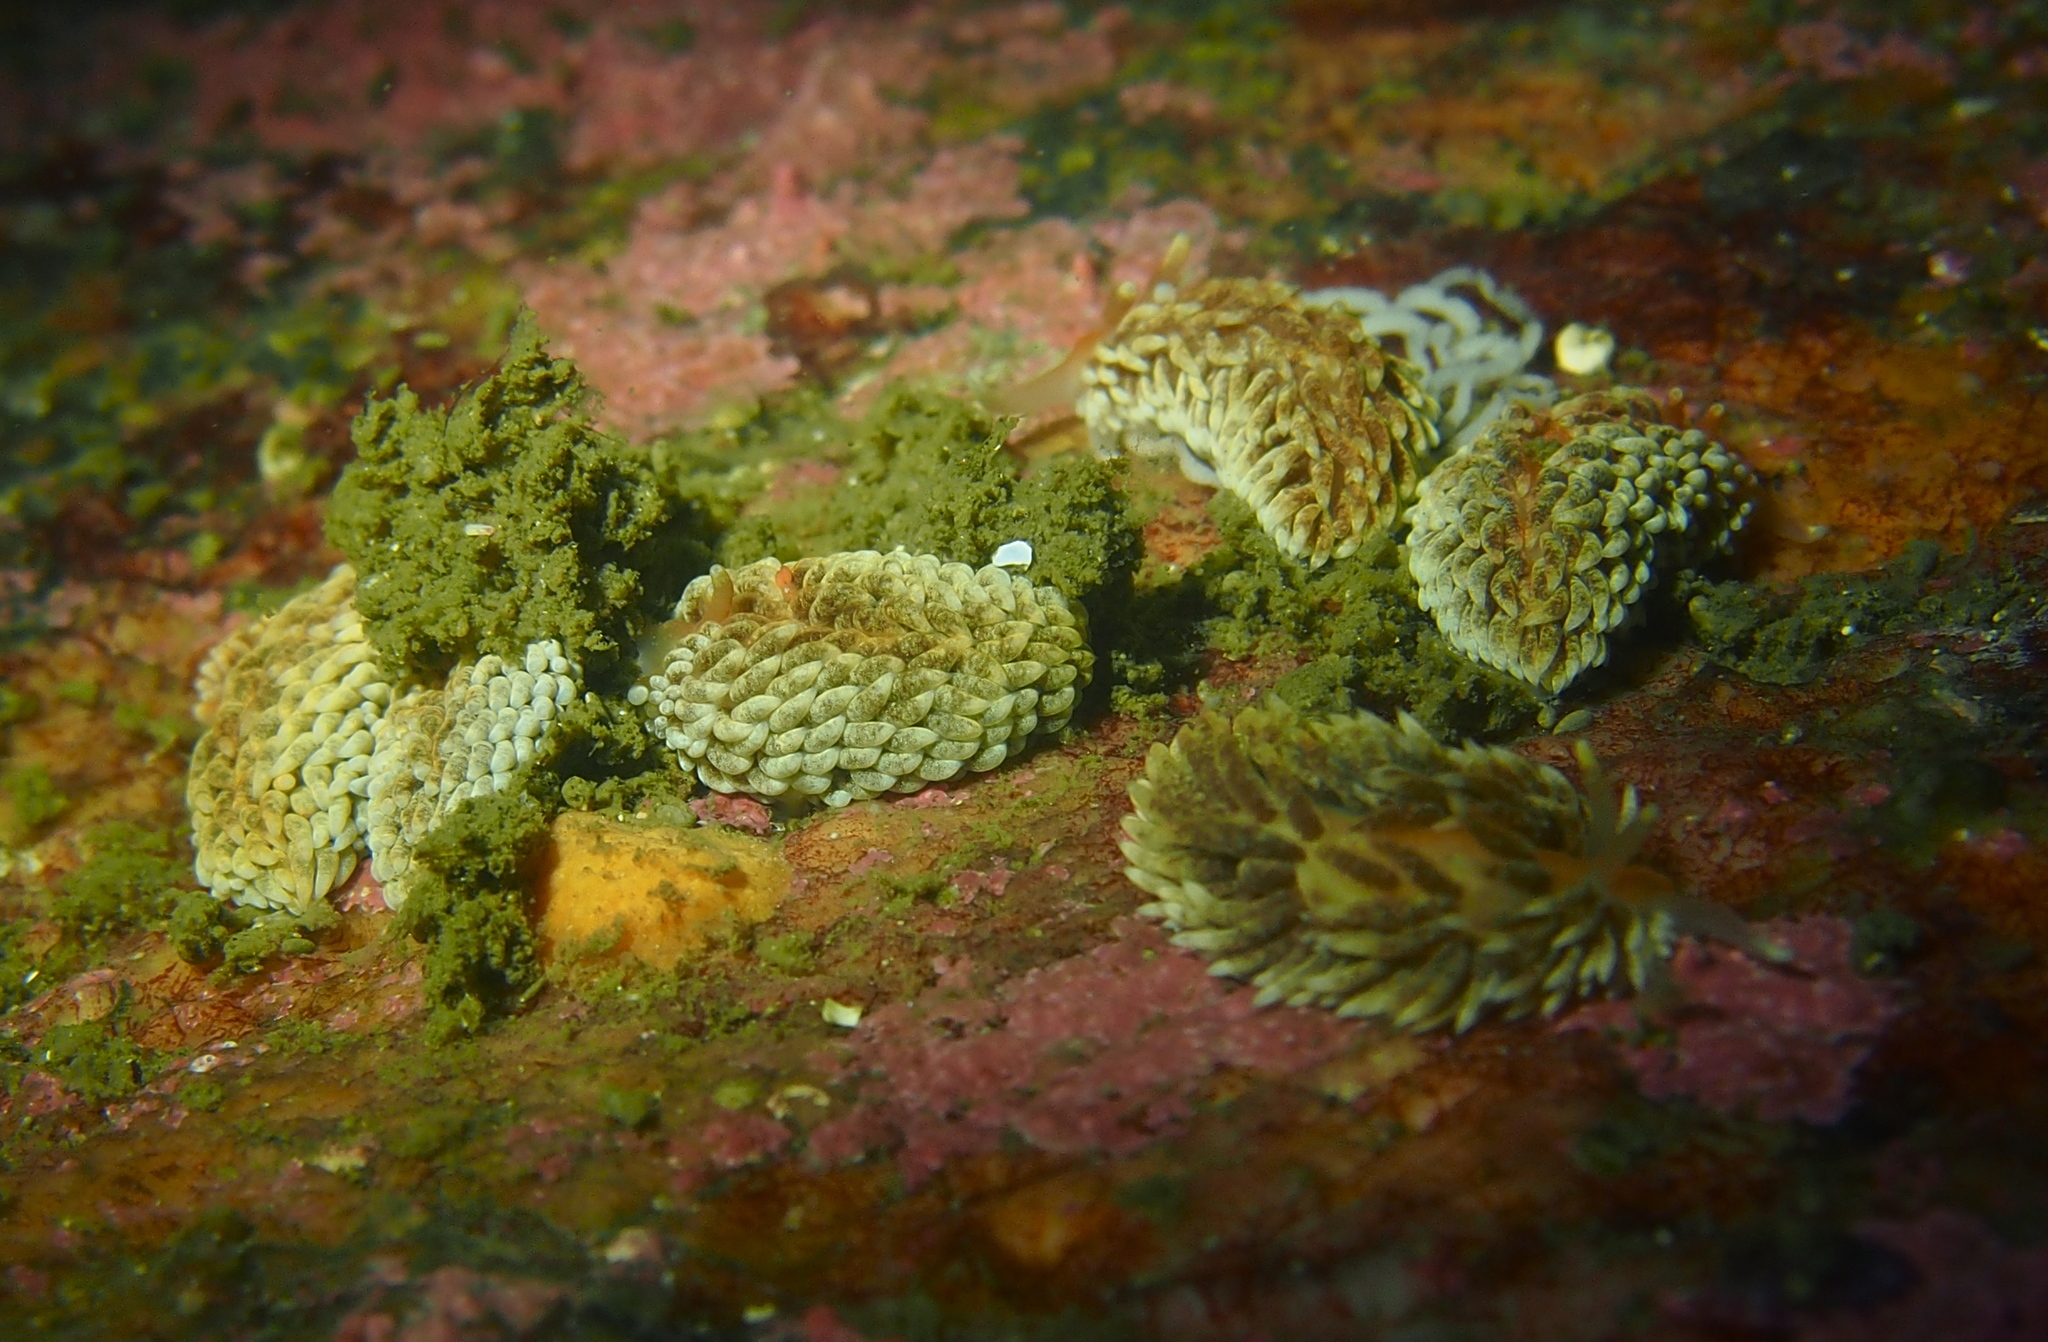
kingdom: Animalia
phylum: Mollusca
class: Gastropoda
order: Nudibranchia
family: Aeolidiidae
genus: Aeolidiella
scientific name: Aeolidiella glauca
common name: Orange-brown aeolid
